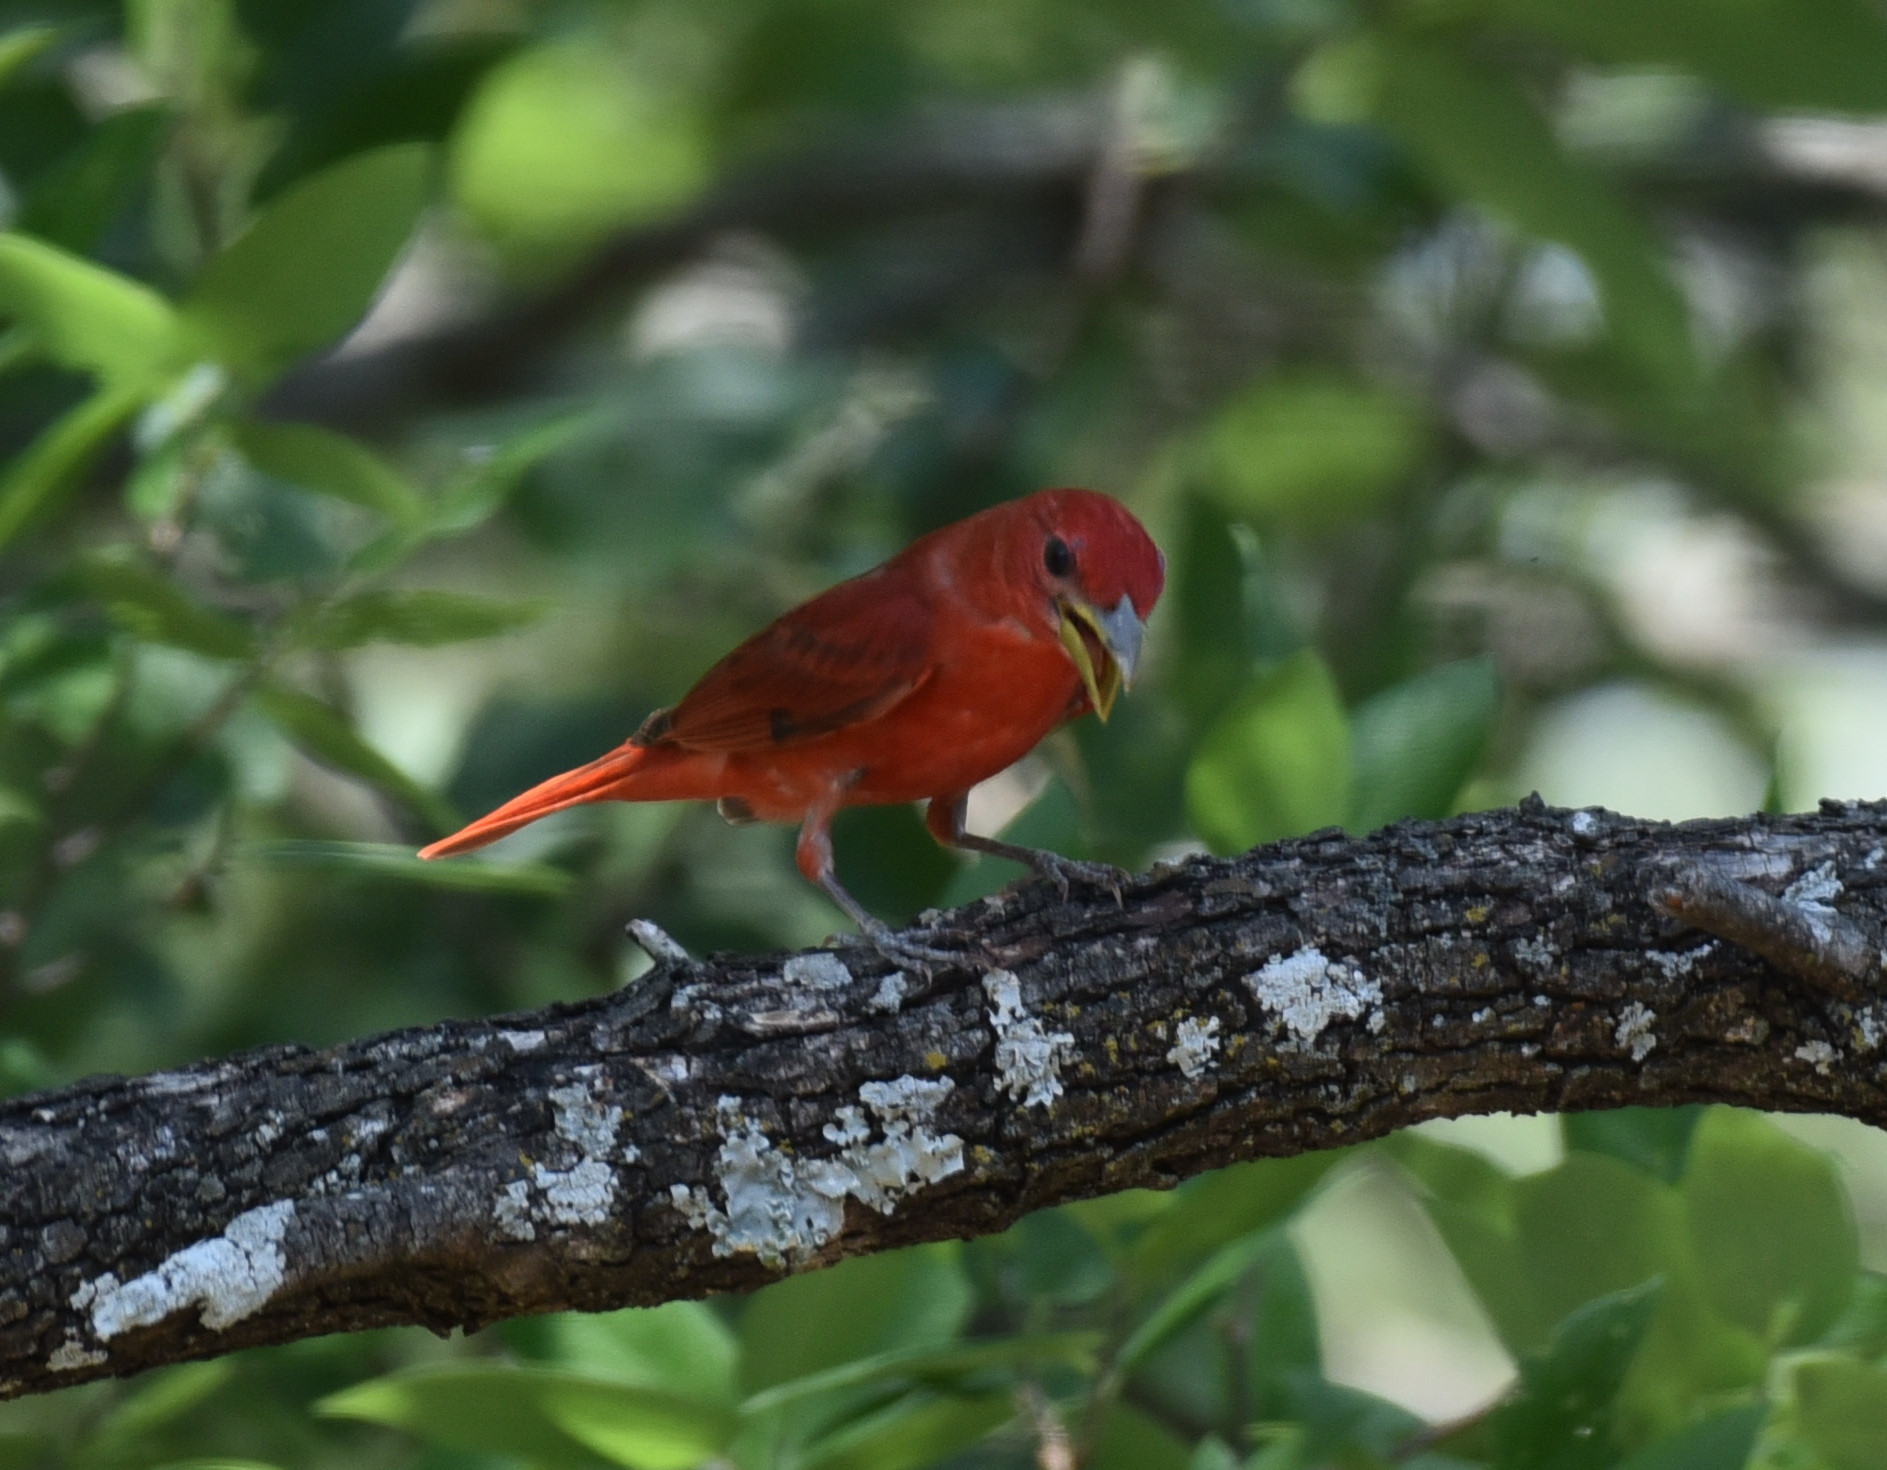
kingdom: Animalia
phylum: Chordata
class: Aves
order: Passeriformes
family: Cardinalidae
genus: Piranga
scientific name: Piranga rubra
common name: Summer tanager
